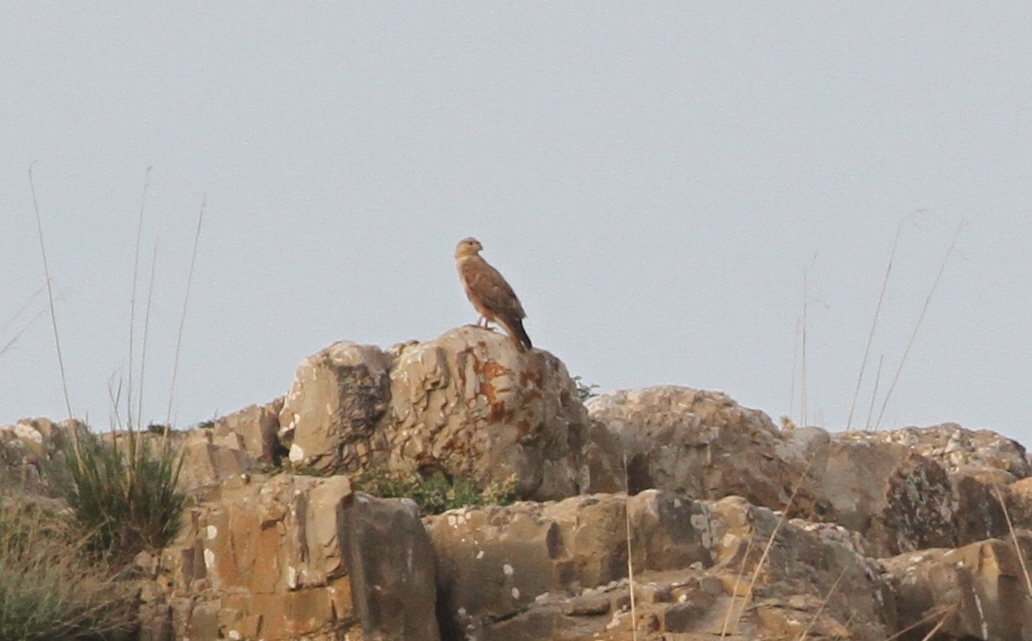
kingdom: Animalia
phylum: Chordata
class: Aves
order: Accipitriformes
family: Accipitridae
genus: Buteo
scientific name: Buteo rufinus
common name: Long-legged buzzard
